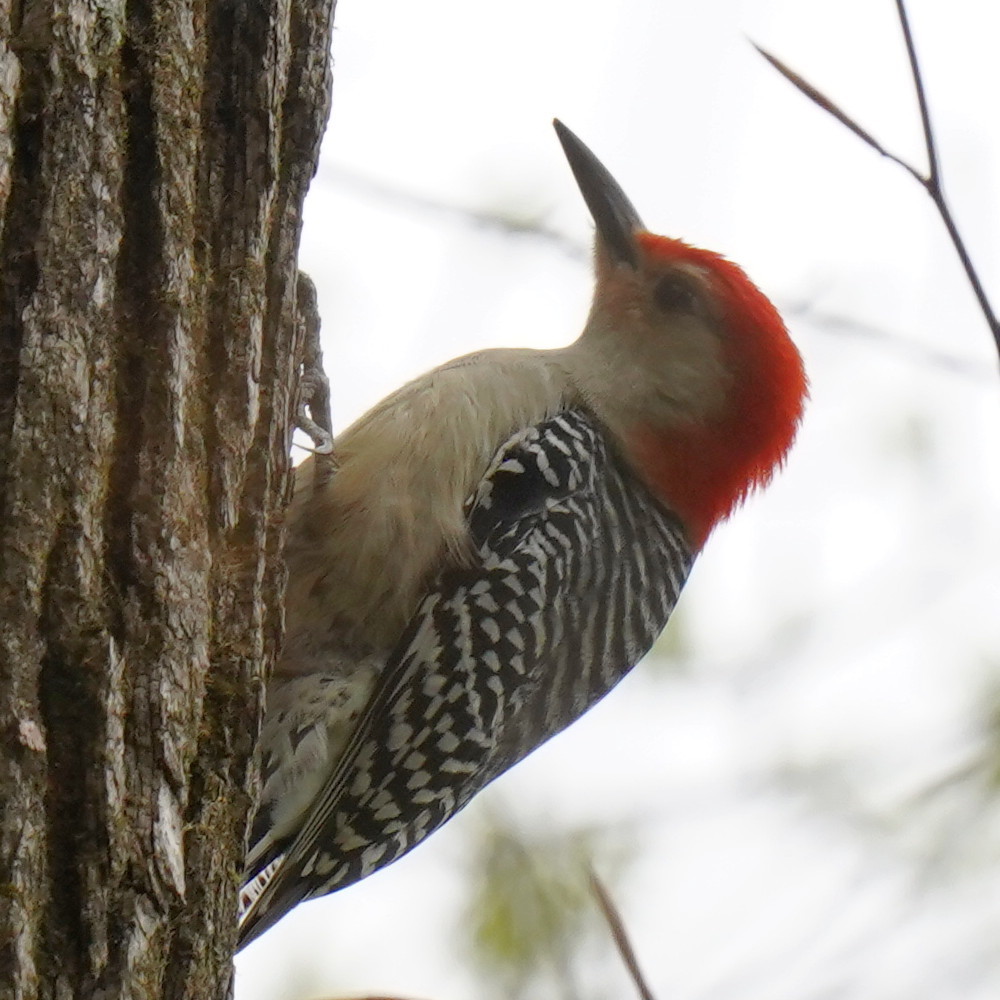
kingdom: Animalia
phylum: Chordata
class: Aves
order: Piciformes
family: Picidae
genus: Melanerpes
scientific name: Melanerpes carolinus
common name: Red-bellied woodpecker
